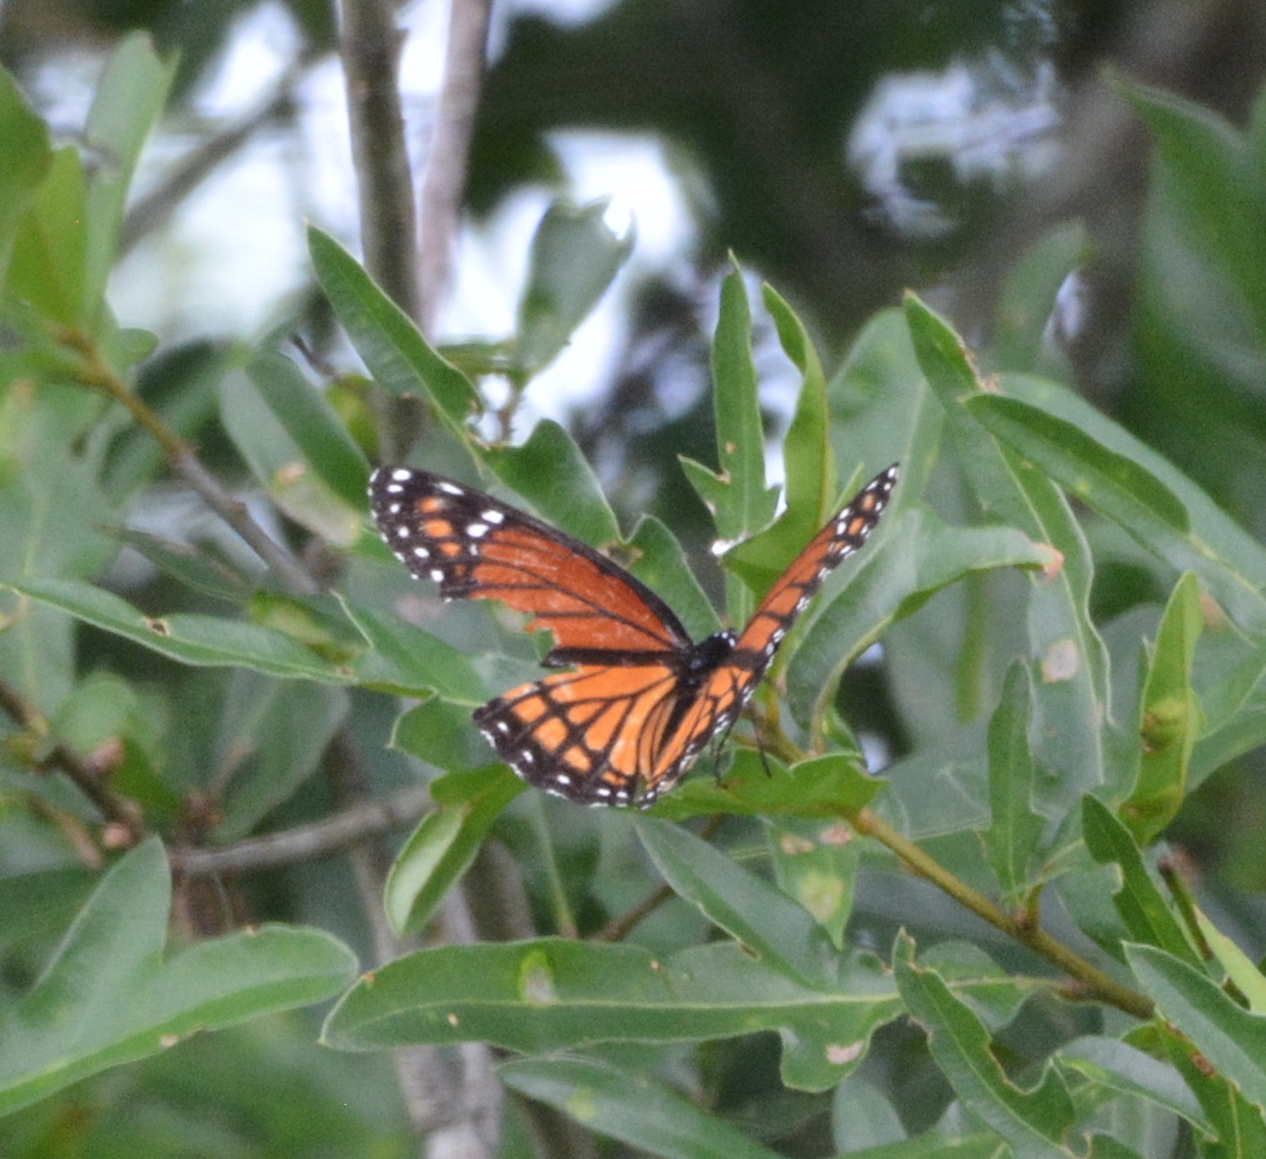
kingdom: Animalia
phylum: Arthropoda
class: Insecta
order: Lepidoptera
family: Nymphalidae
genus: Limenitis
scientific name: Limenitis archippus
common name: Viceroy
